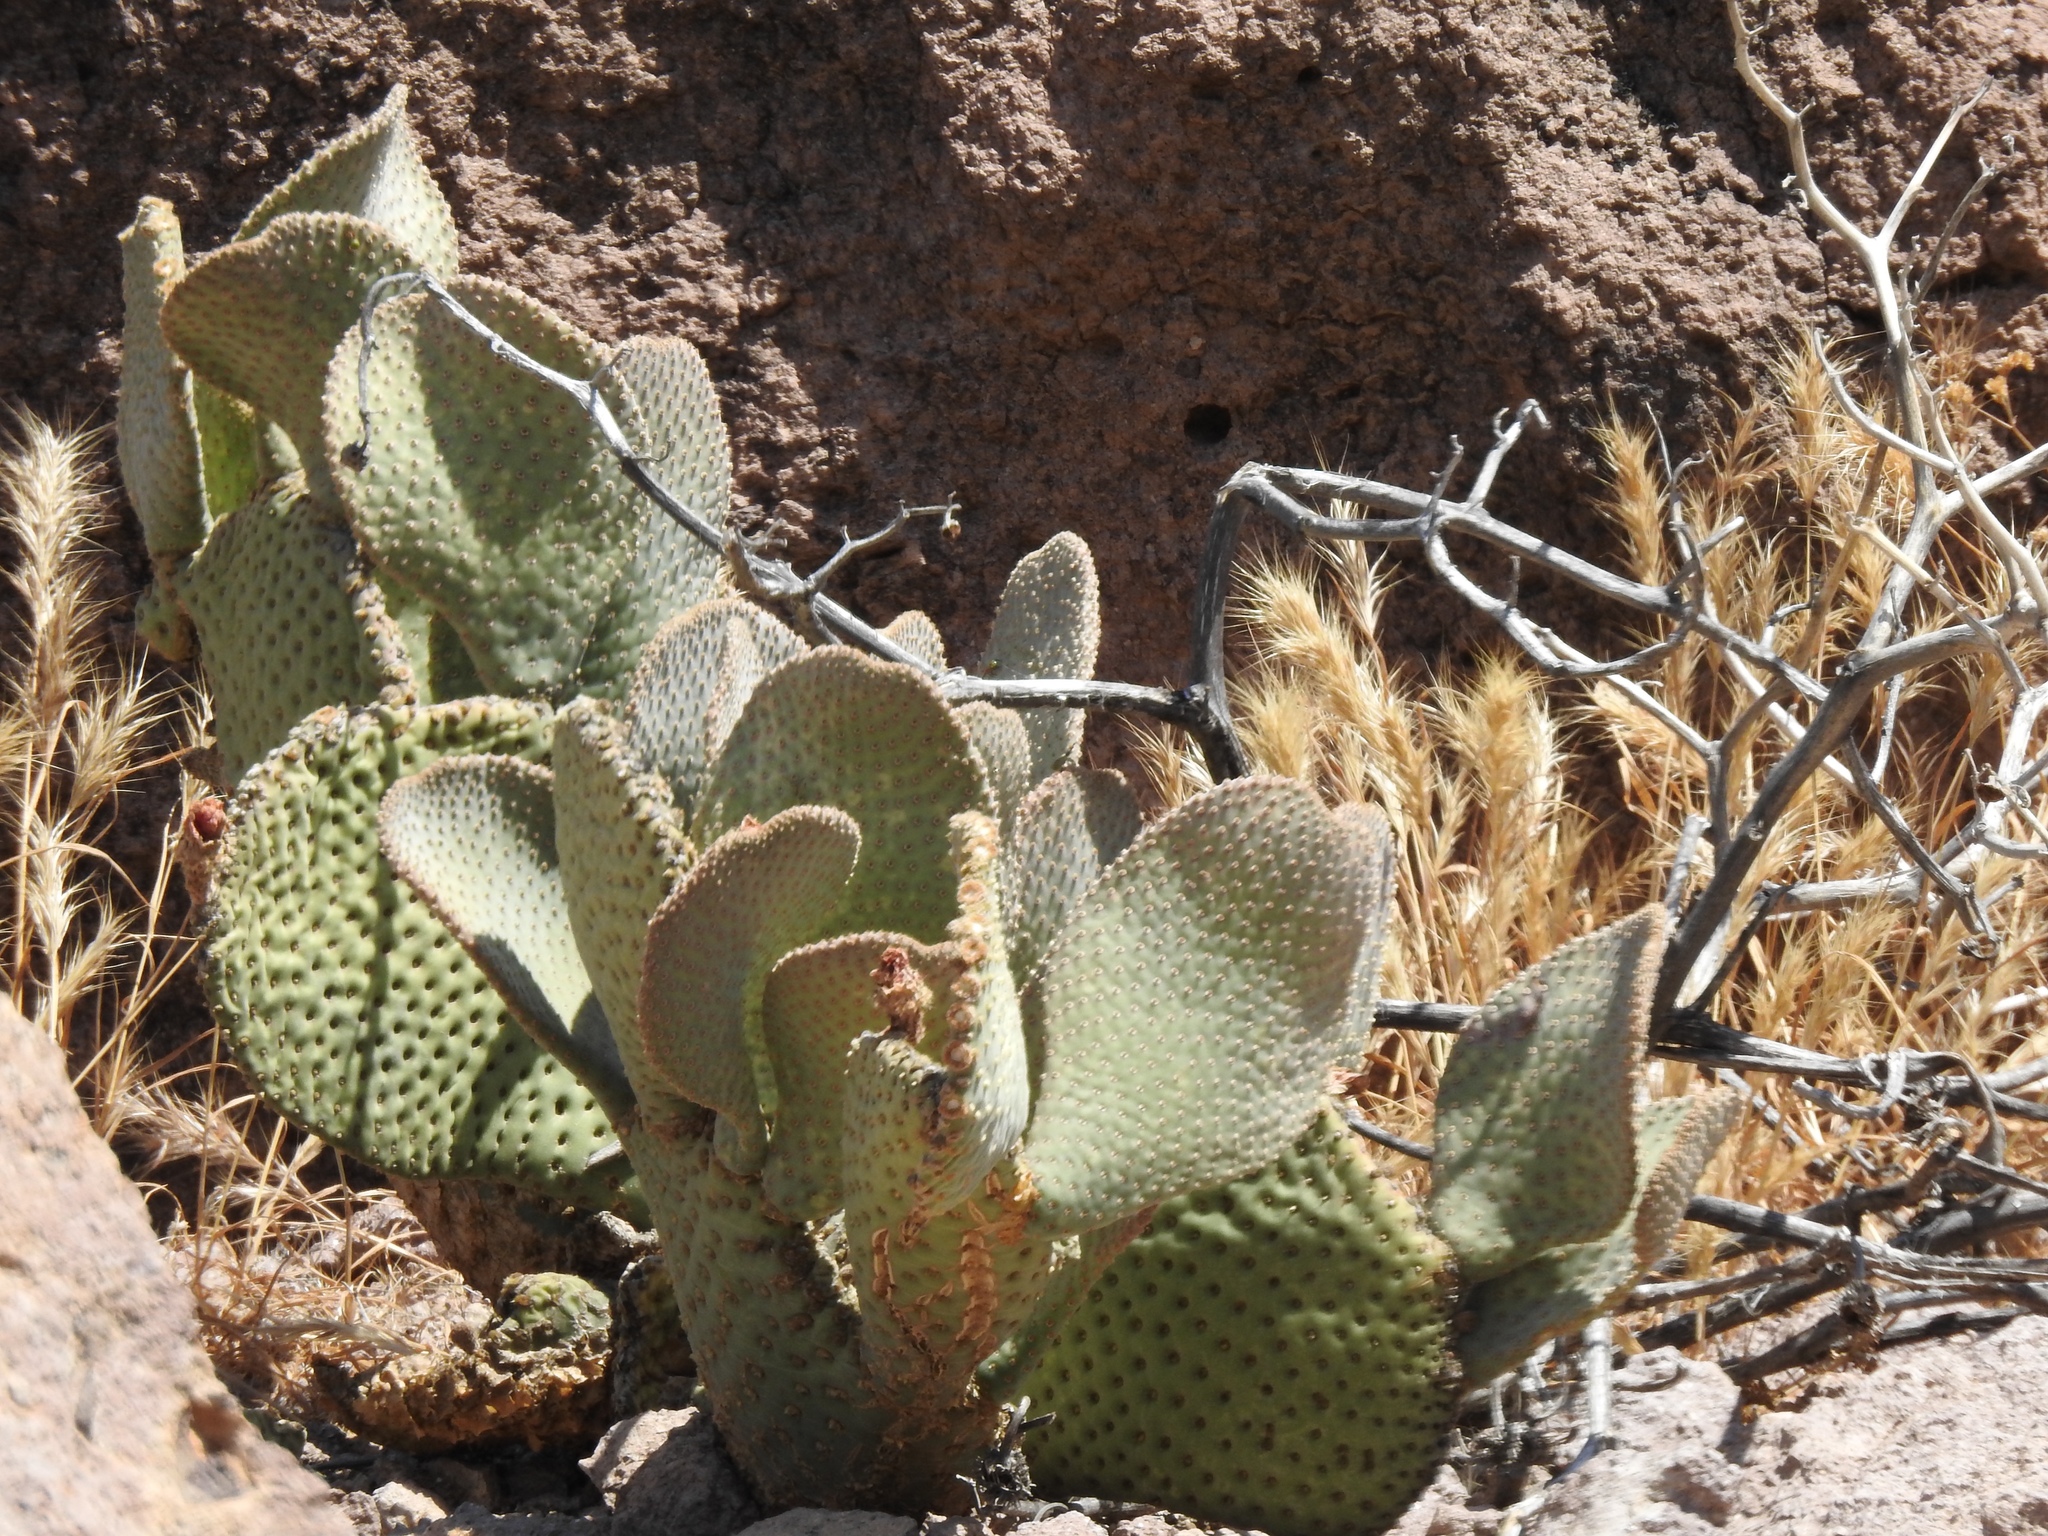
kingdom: Plantae
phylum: Tracheophyta
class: Magnoliopsida
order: Caryophyllales
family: Cactaceae
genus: Opuntia
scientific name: Opuntia basilaris
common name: Beavertail prickly-pear
